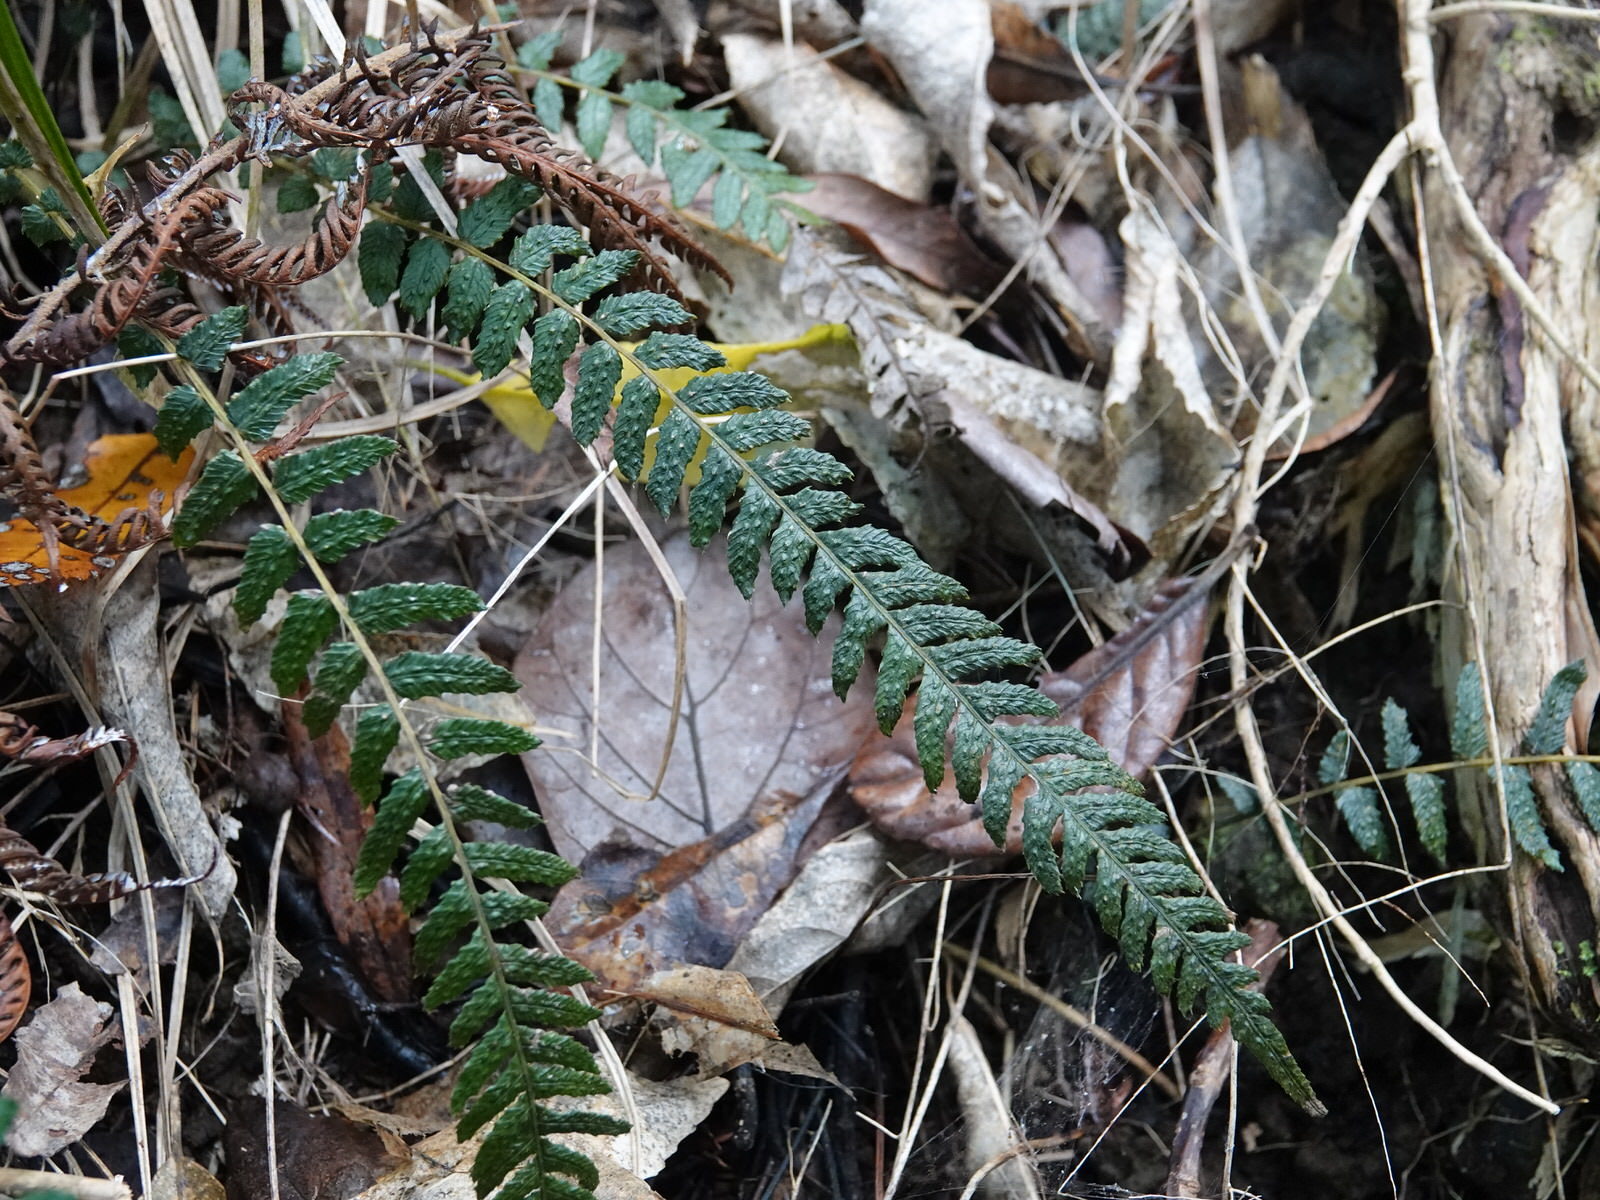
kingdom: Plantae
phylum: Tracheophyta
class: Polypodiopsida
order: Polypodiales
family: Blechnaceae
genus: Doodia
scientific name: Doodia australis
